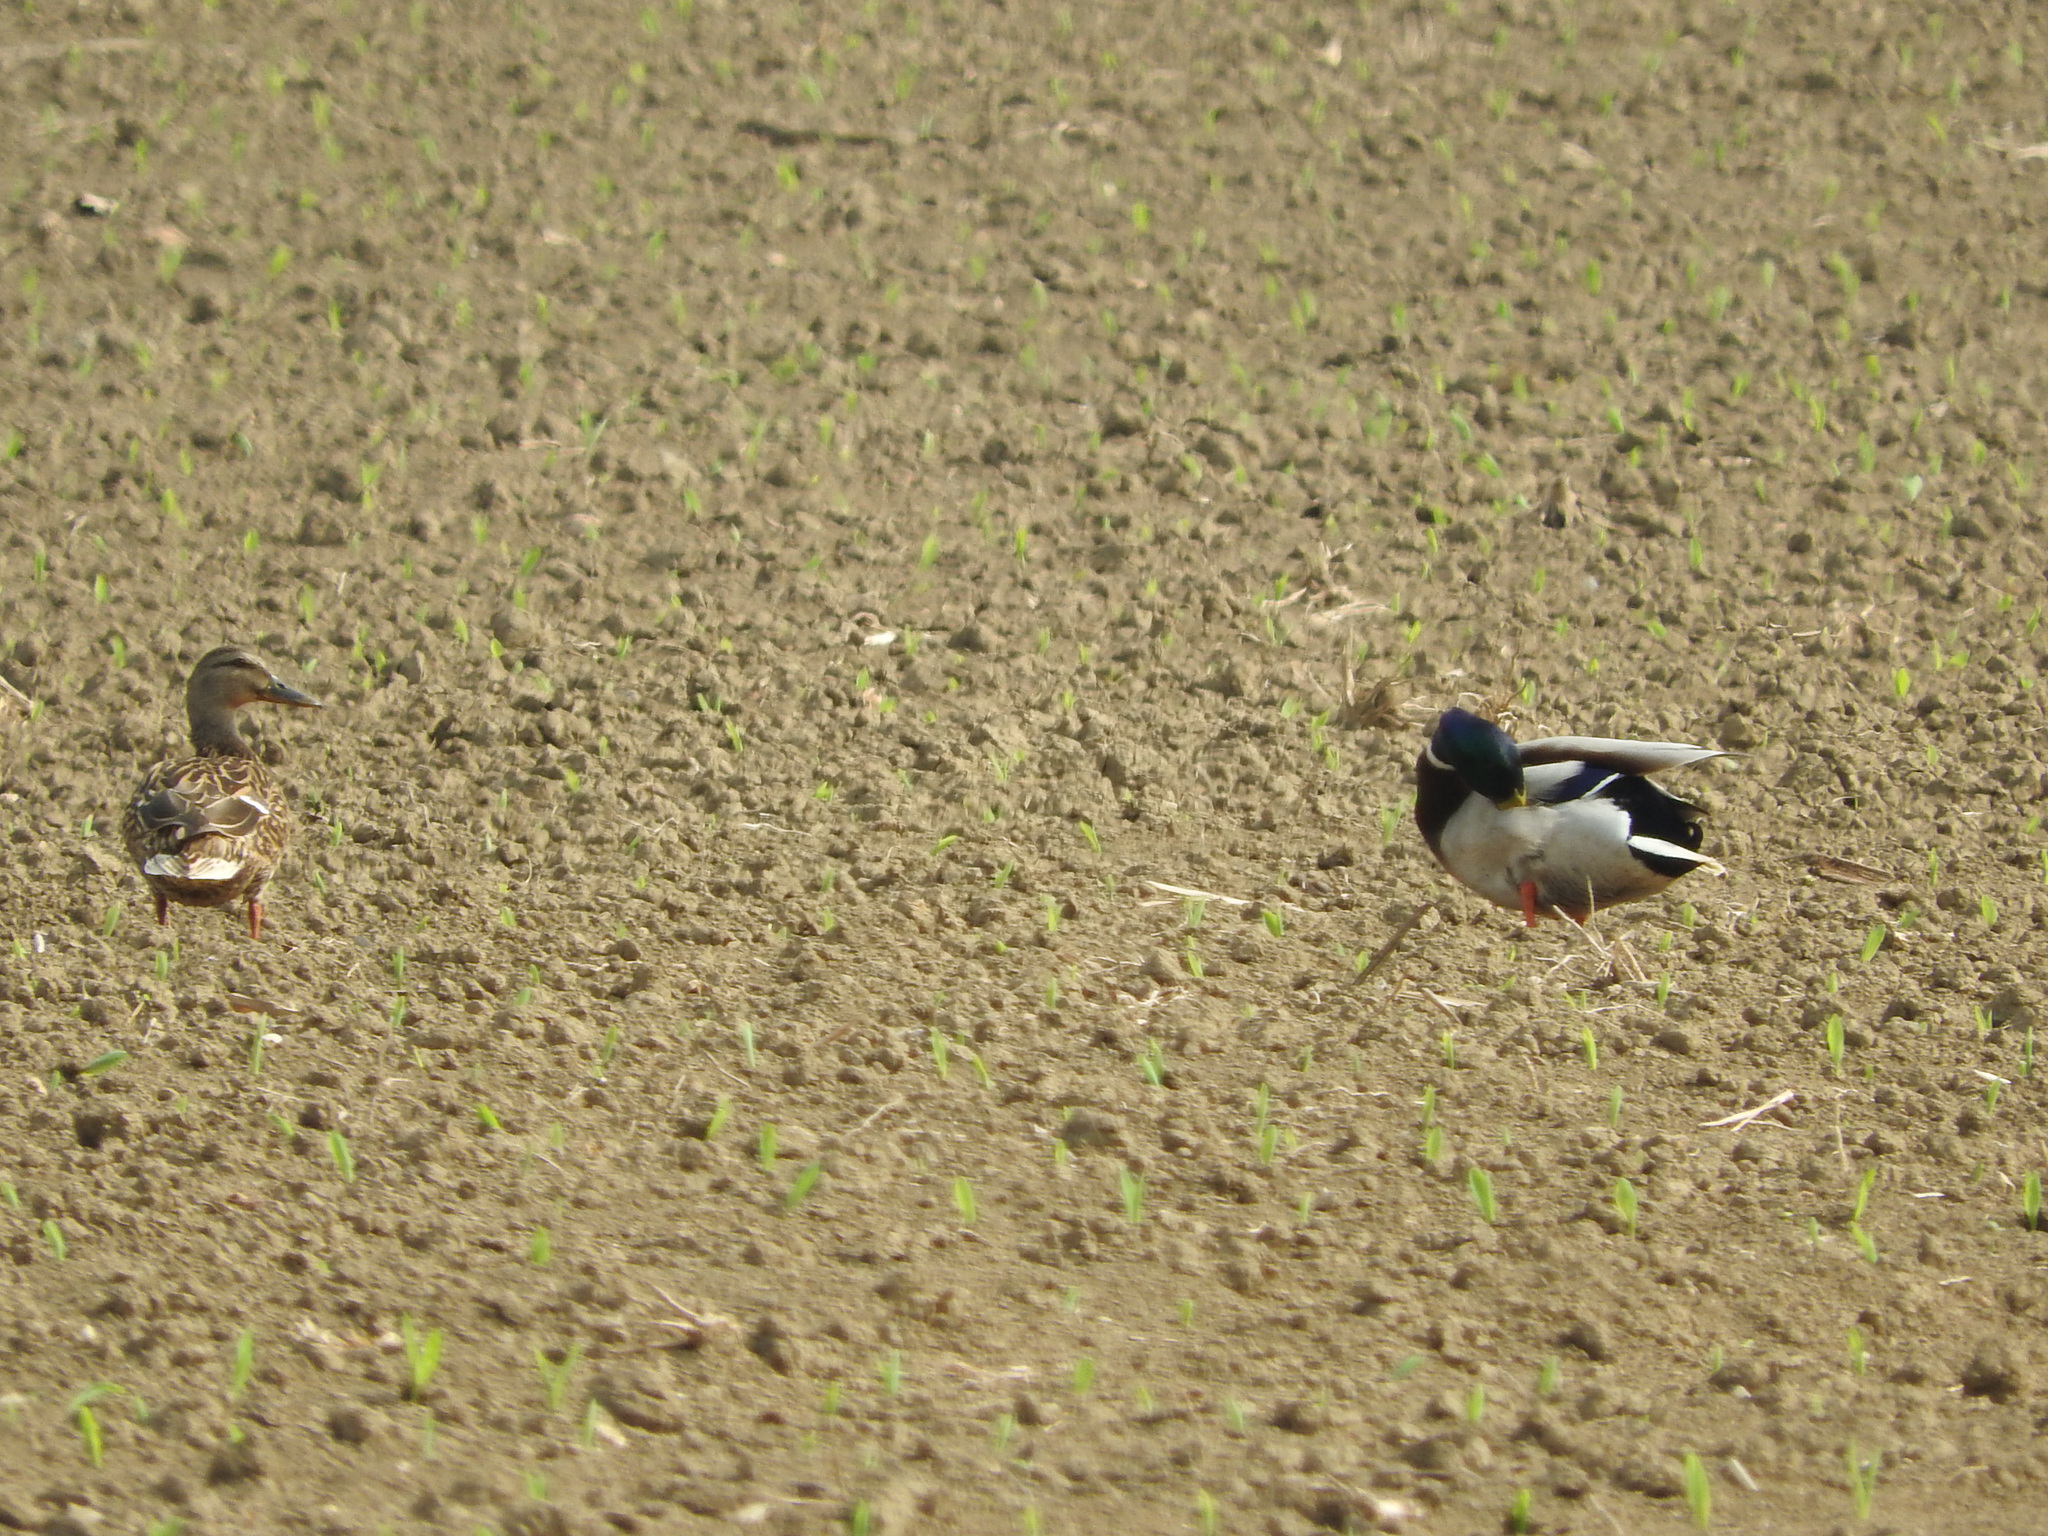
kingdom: Animalia
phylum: Chordata
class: Aves
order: Anseriformes
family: Anatidae
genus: Anas
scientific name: Anas platyrhynchos
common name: Mallard
